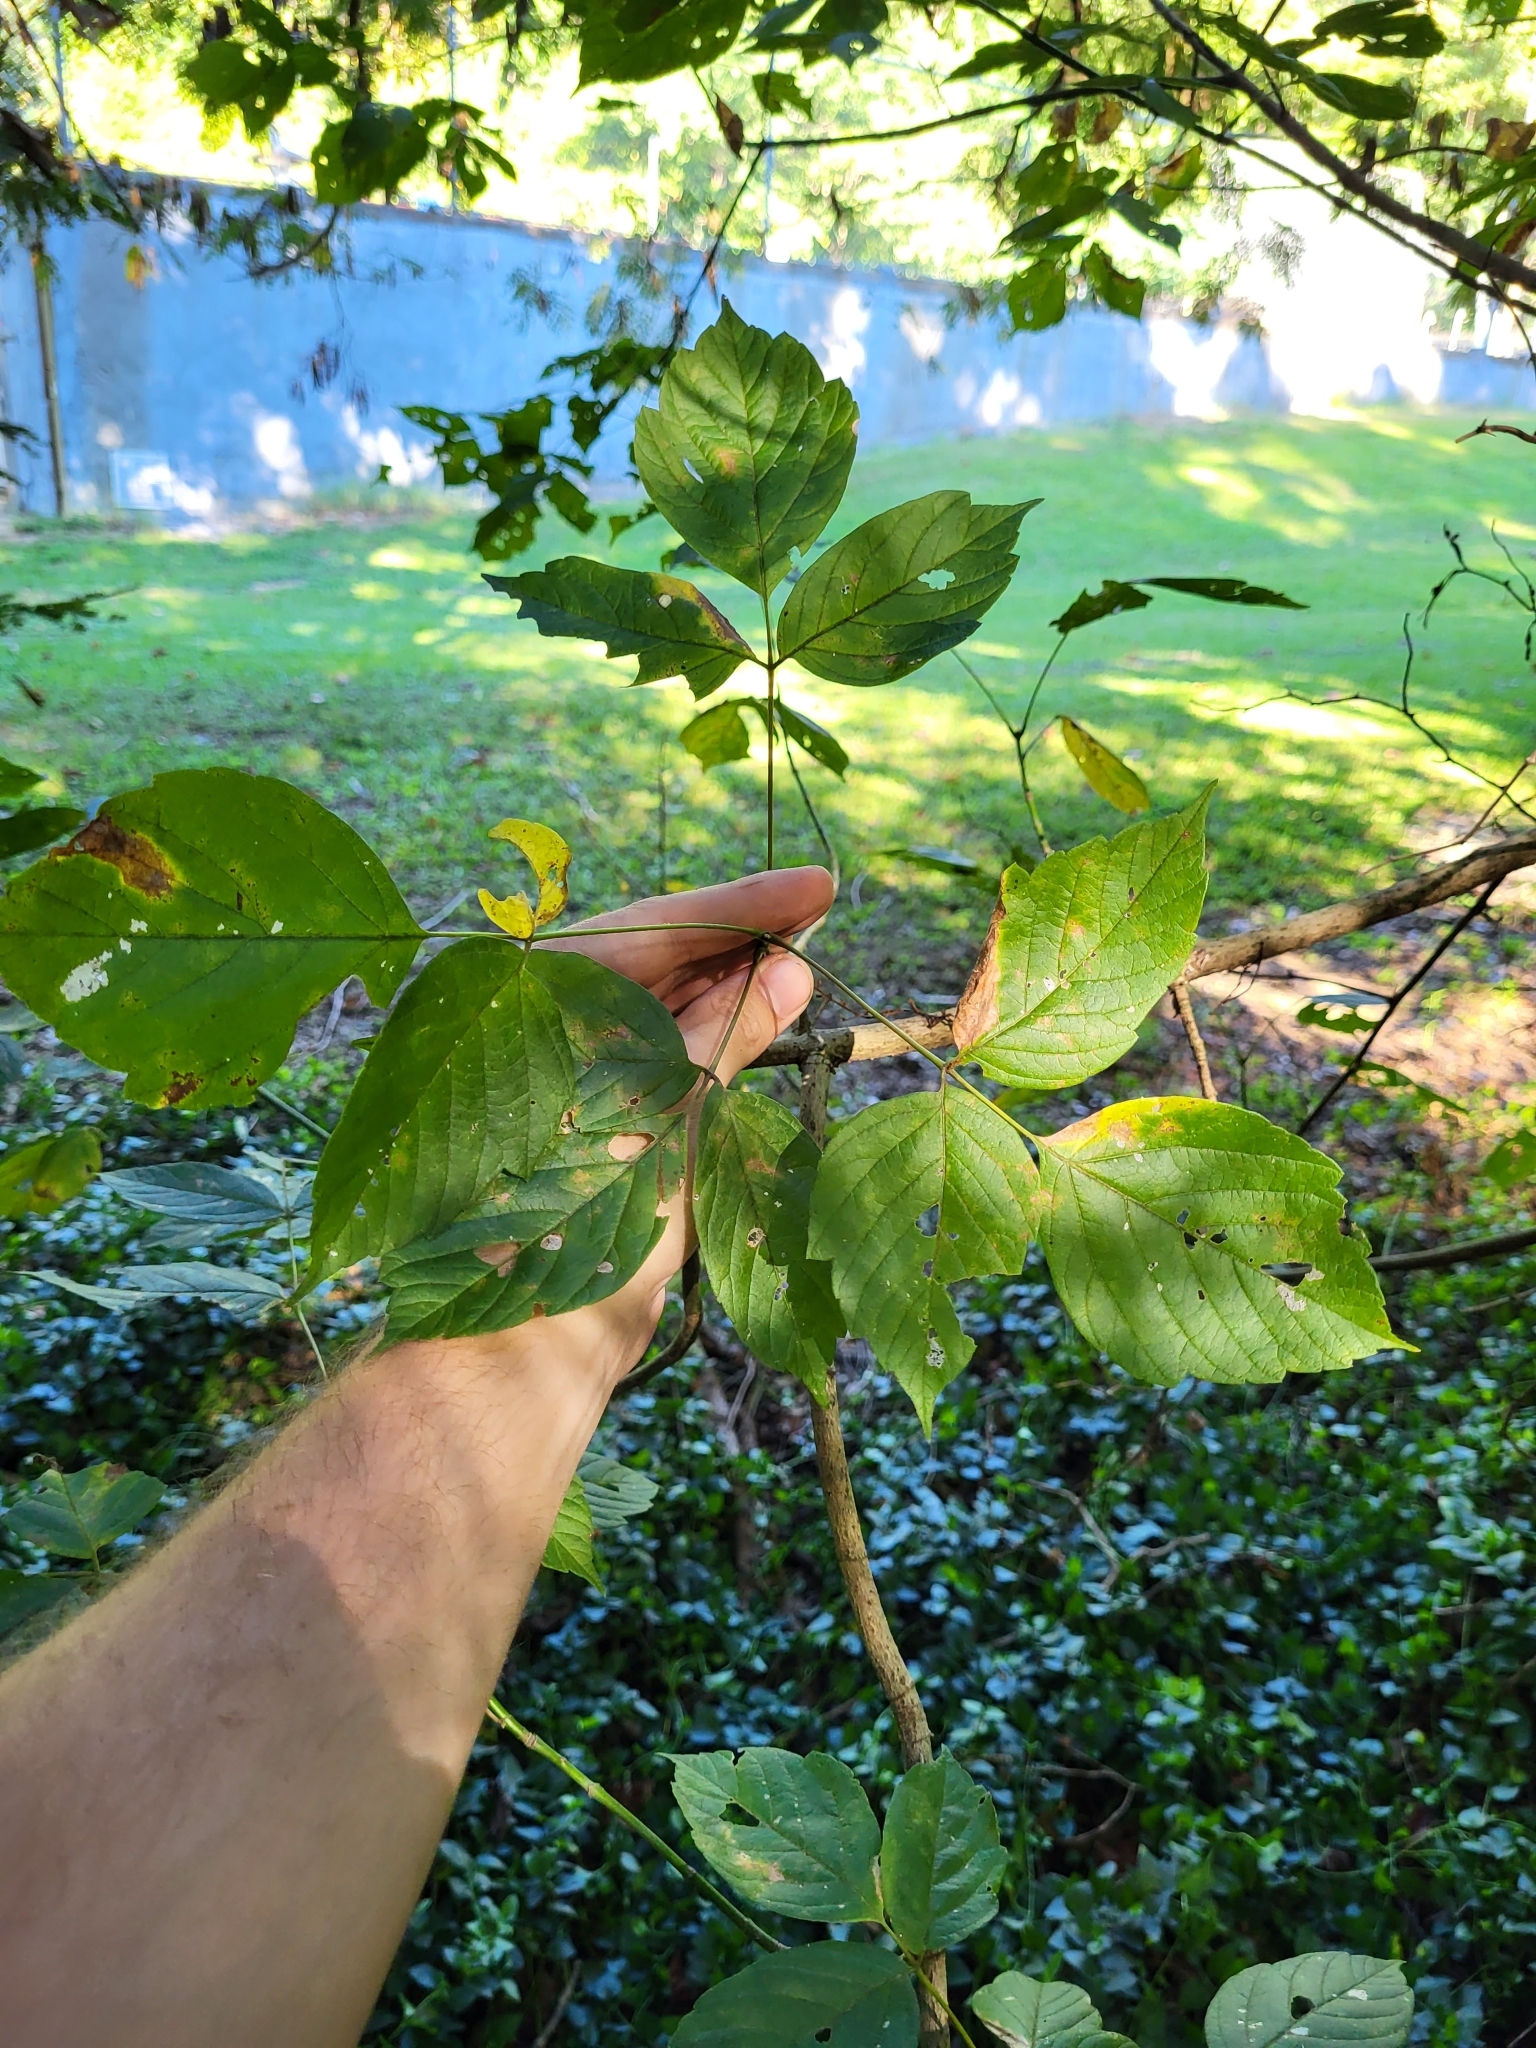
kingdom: Plantae
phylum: Tracheophyta
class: Magnoliopsida
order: Sapindales
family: Sapindaceae
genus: Acer
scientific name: Acer negundo
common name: Ashleaf maple
